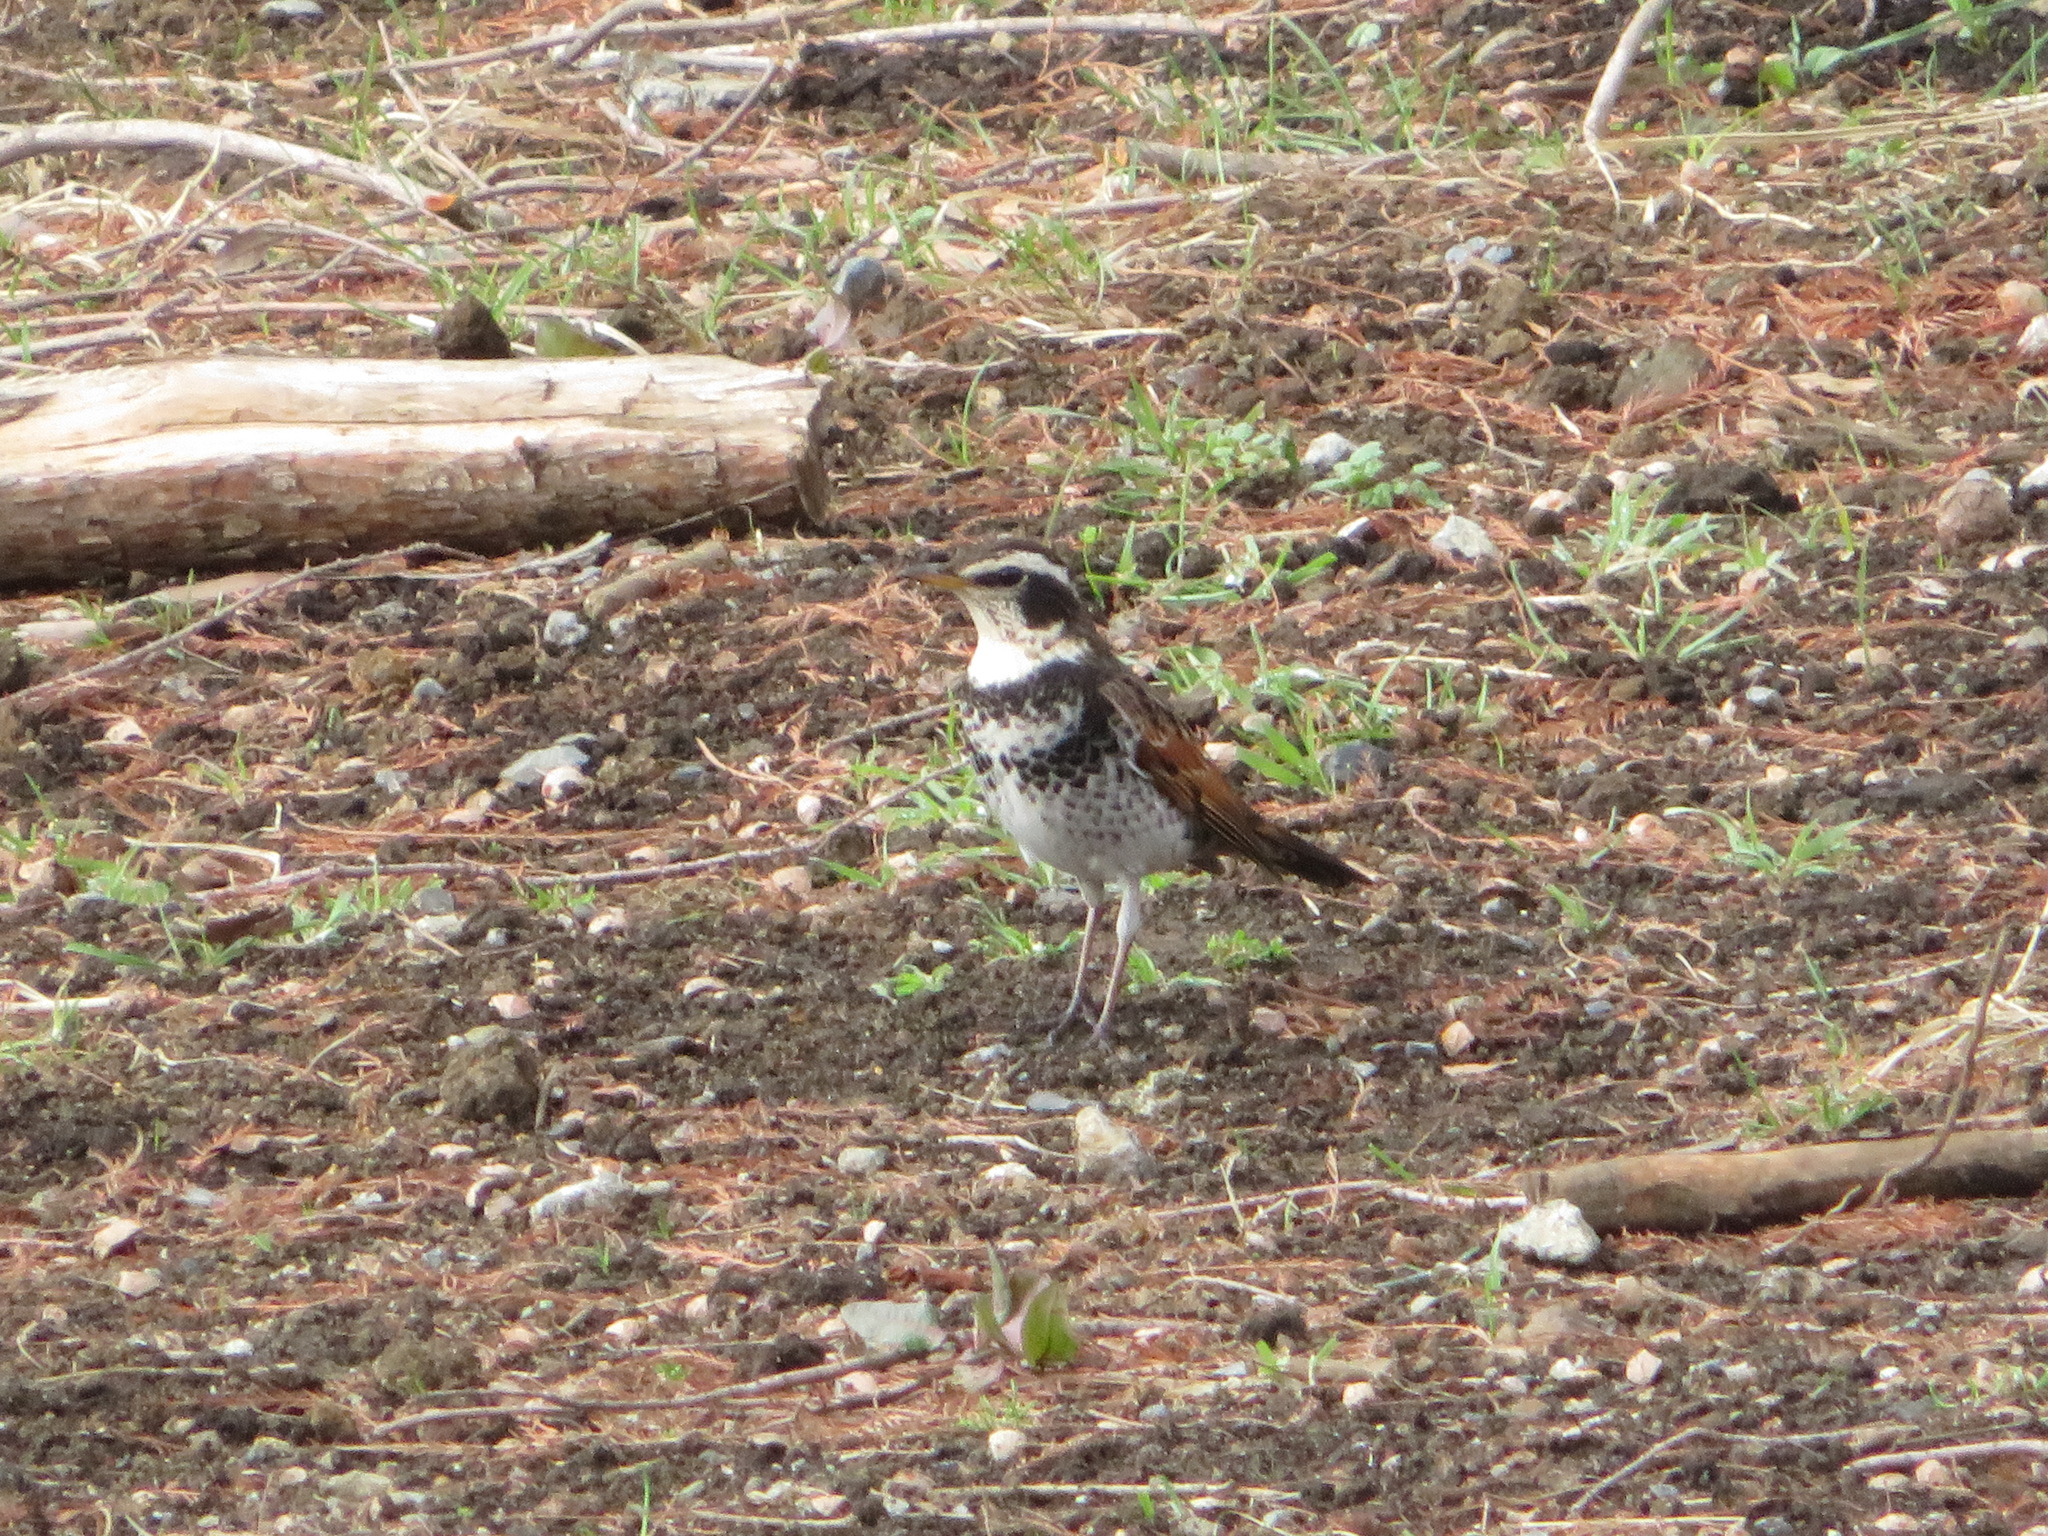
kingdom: Animalia
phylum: Chordata
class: Aves
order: Passeriformes
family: Turdidae
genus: Turdus
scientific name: Turdus eunomus
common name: Dusky thrush
